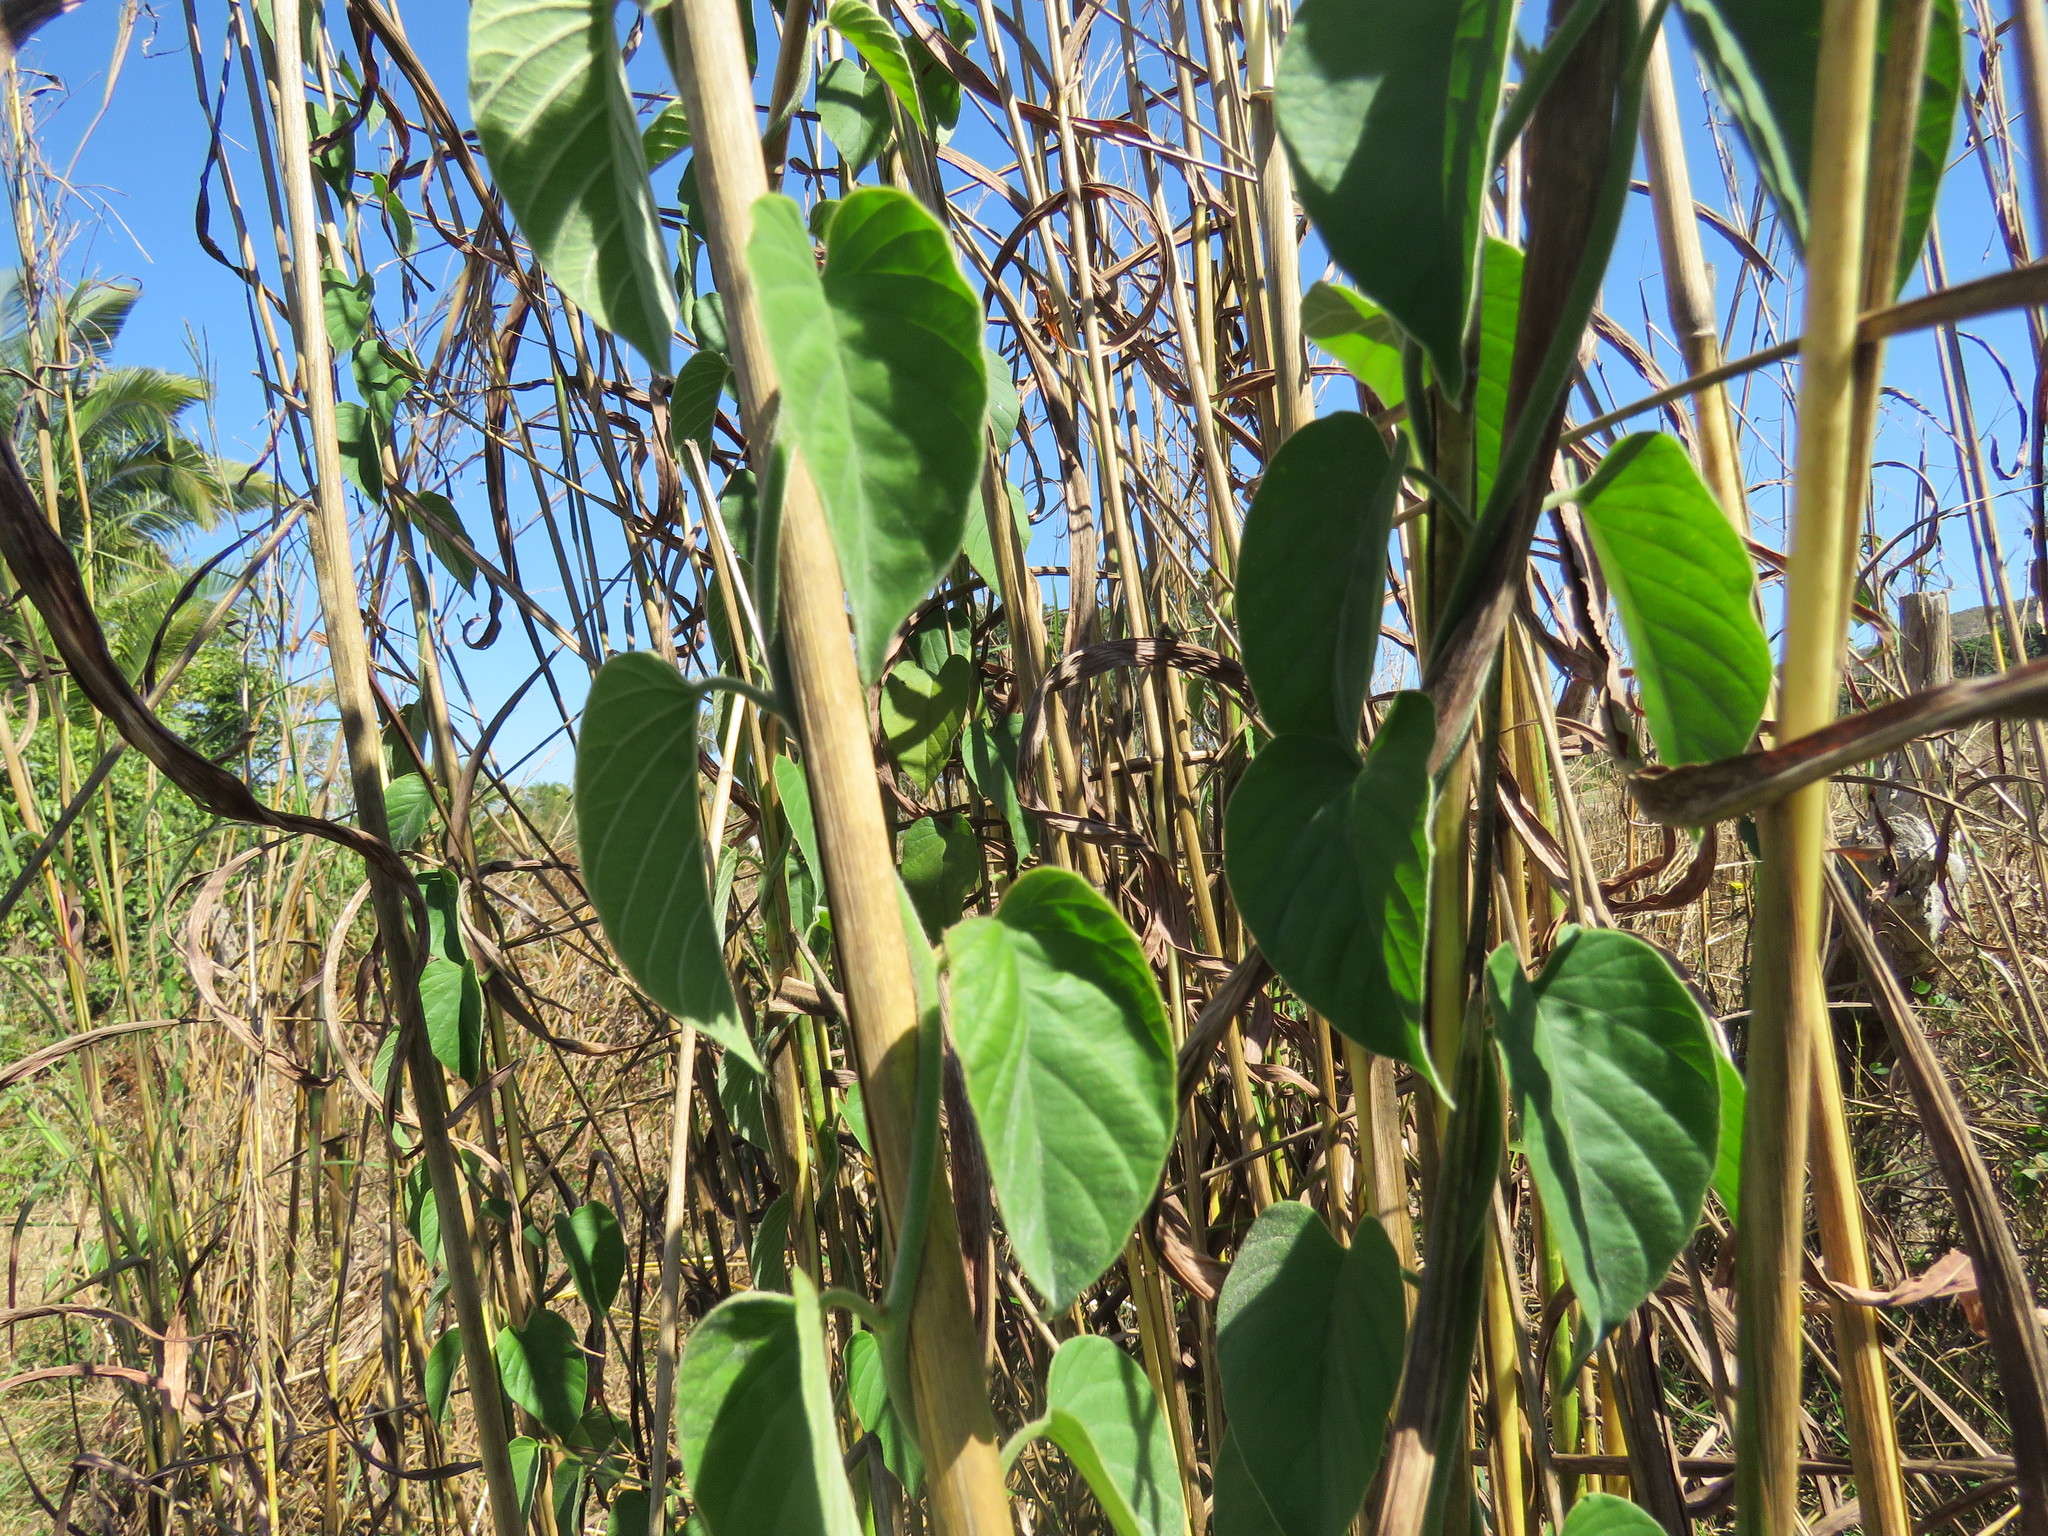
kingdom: Plantae
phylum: Tracheophyta
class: Magnoliopsida
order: Solanales
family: Convolvulaceae
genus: Odonellia
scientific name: Odonellia hirtiflora
